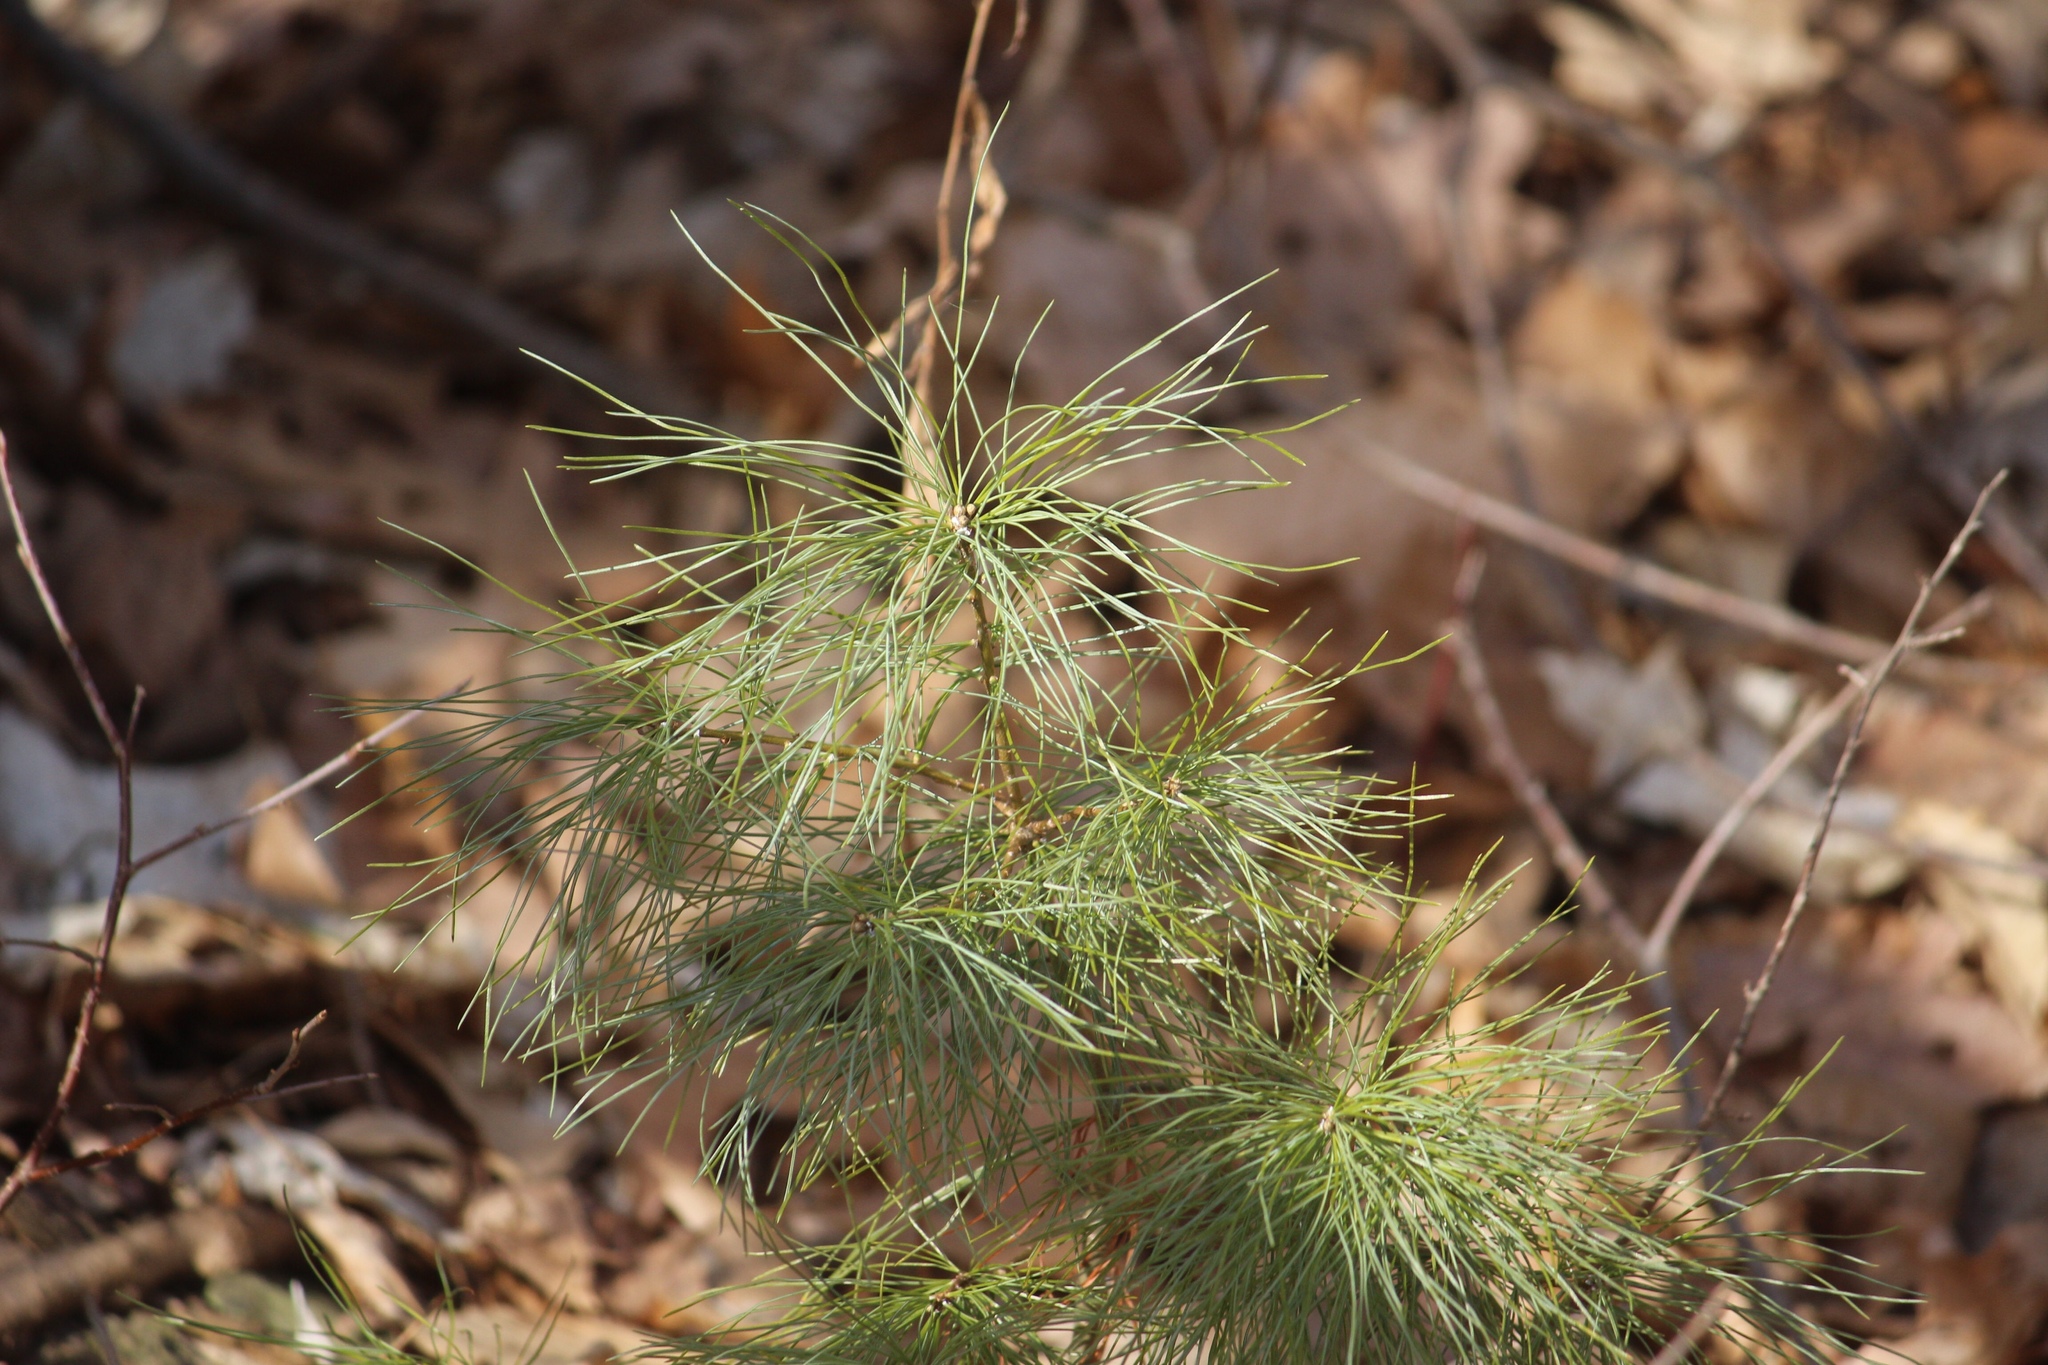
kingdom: Plantae
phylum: Tracheophyta
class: Pinopsida
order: Pinales
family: Pinaceae
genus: Pinus
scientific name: Pinus strobus
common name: Weymouth pine
